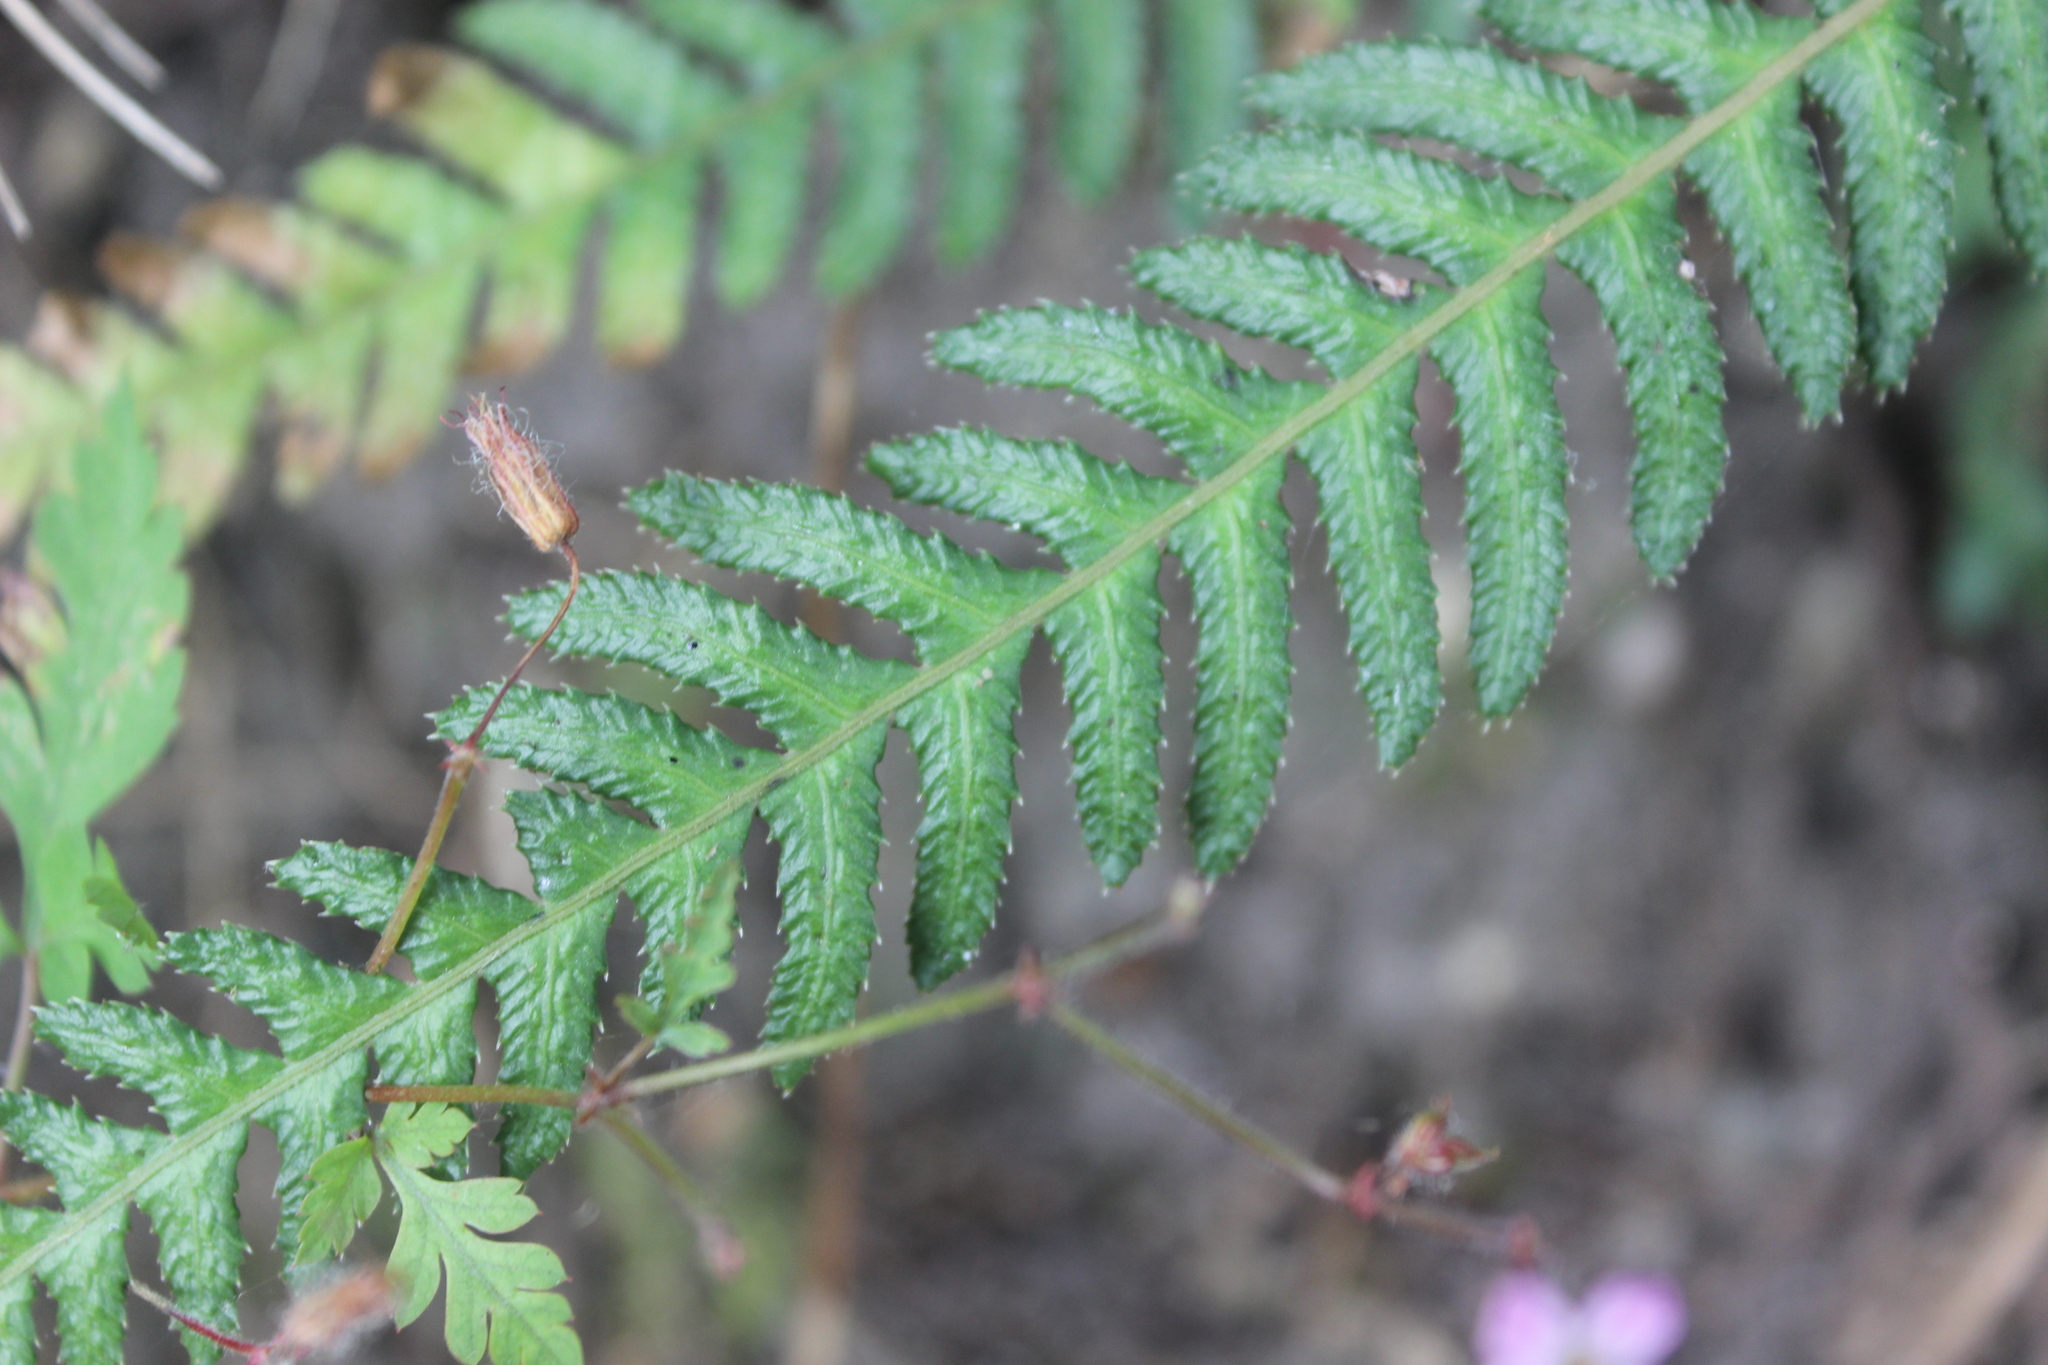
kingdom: Plantae
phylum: Tracheophyta
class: Polypodiopsida
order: Polypodiales
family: Blechnaceae
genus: Doodia
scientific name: Doodia australis
